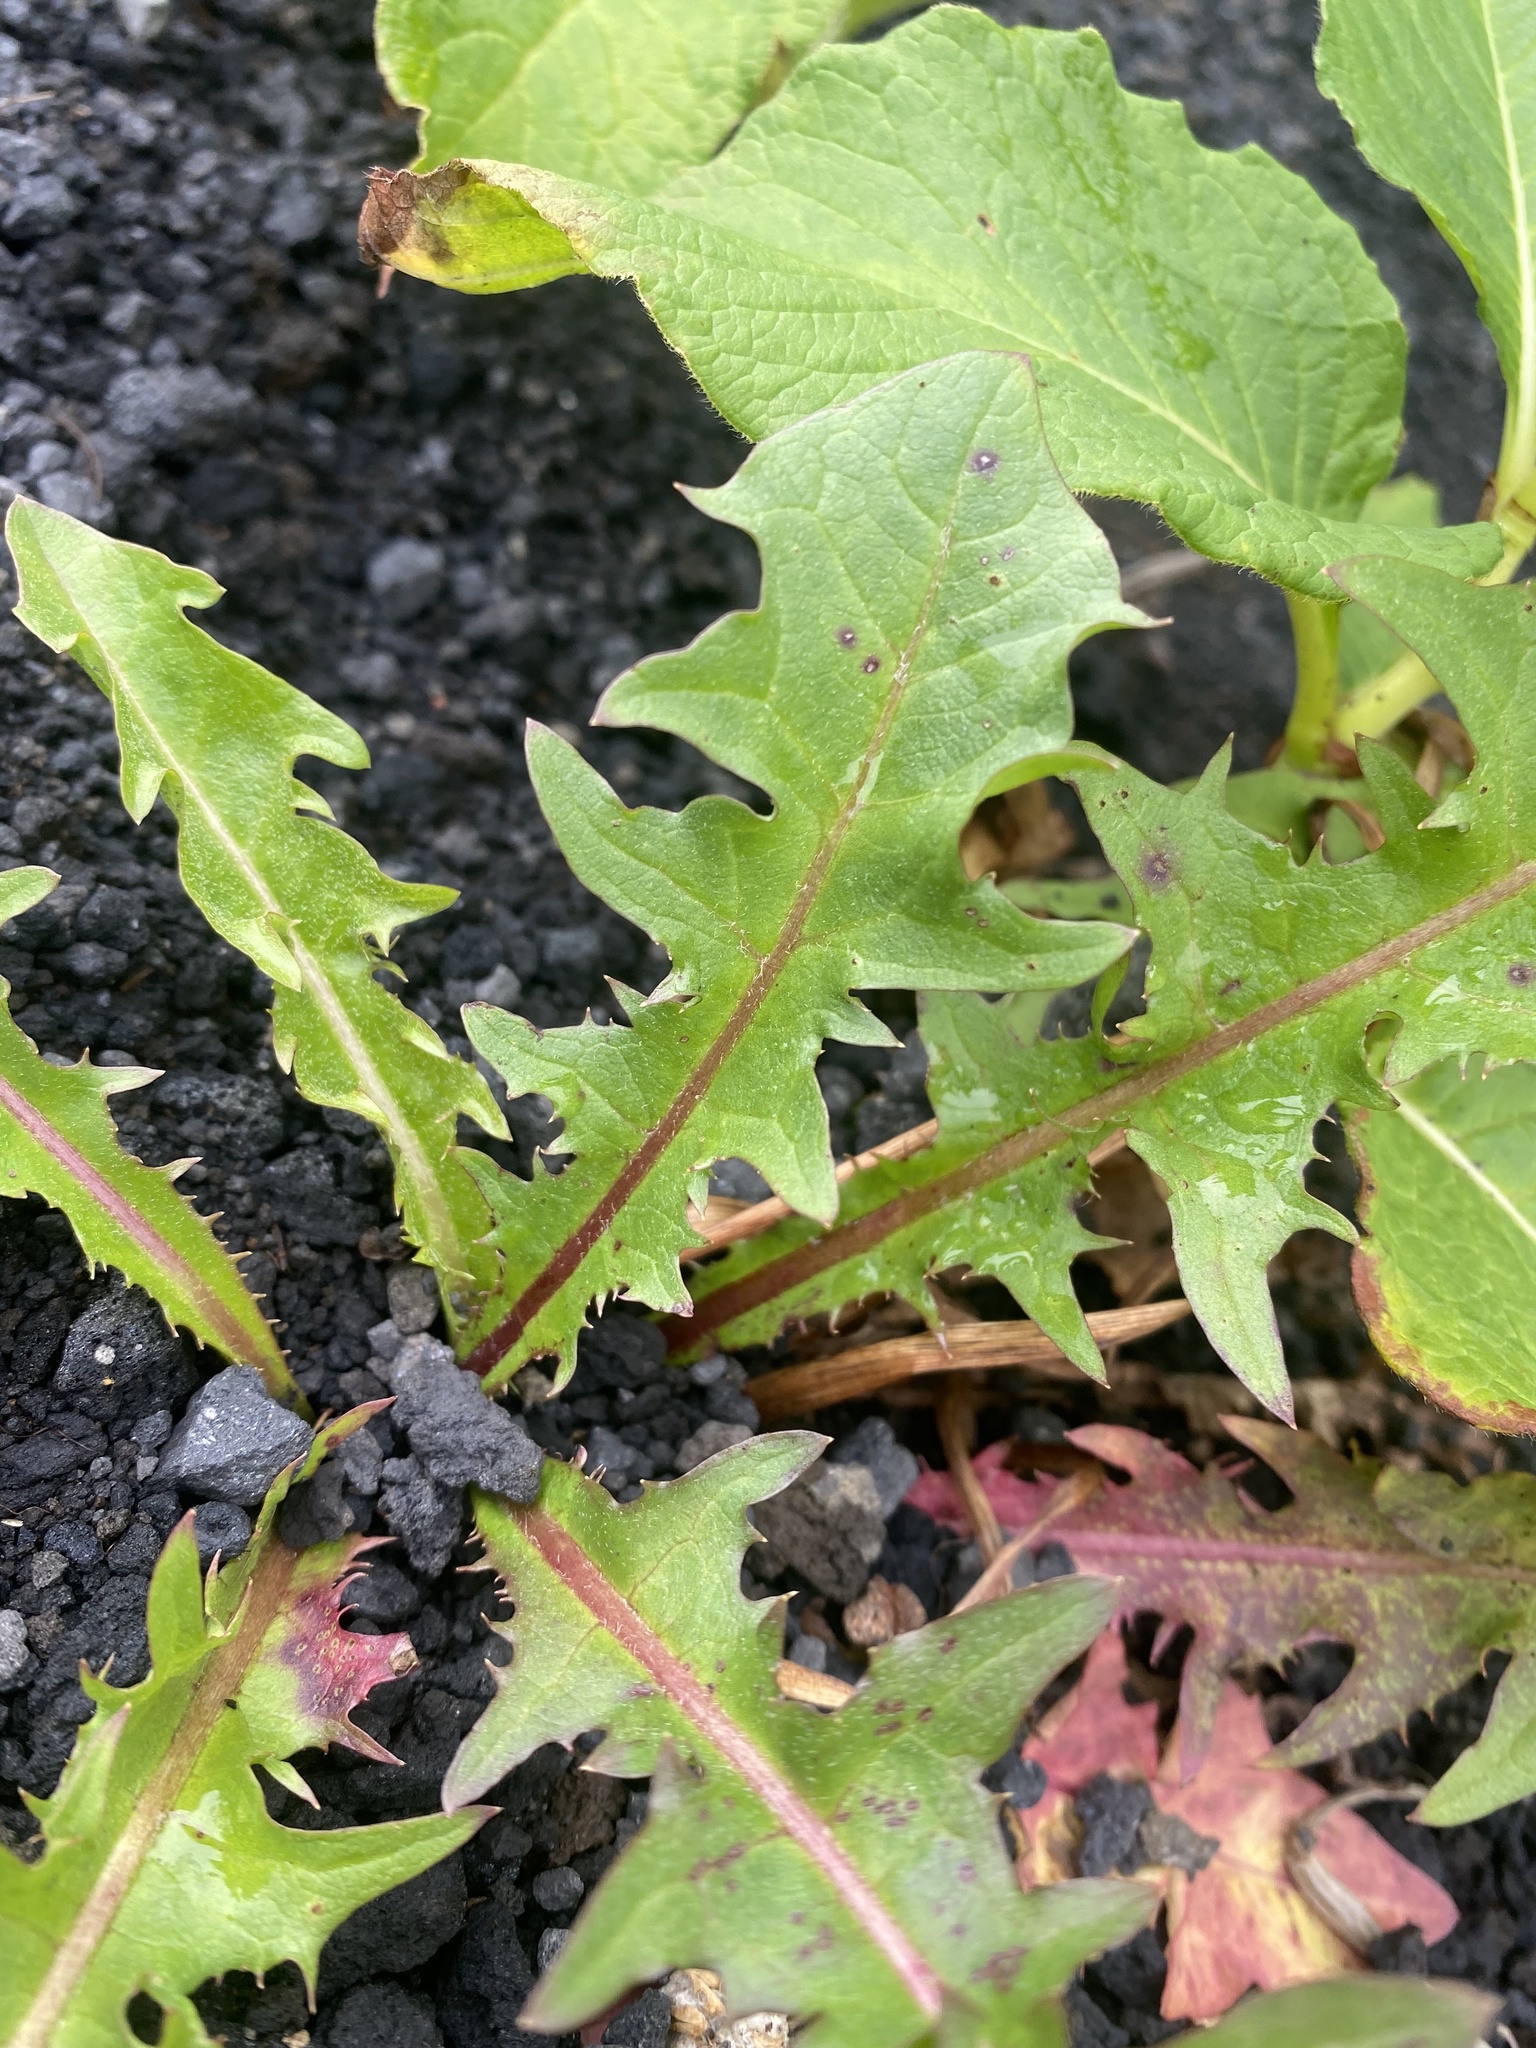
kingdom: Plantae
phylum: Tracheophyta
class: Magnoliopsida
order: Asterales
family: Asteraceae
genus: Taraxacum
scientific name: Taraxacum officinale
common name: Common dandelion
